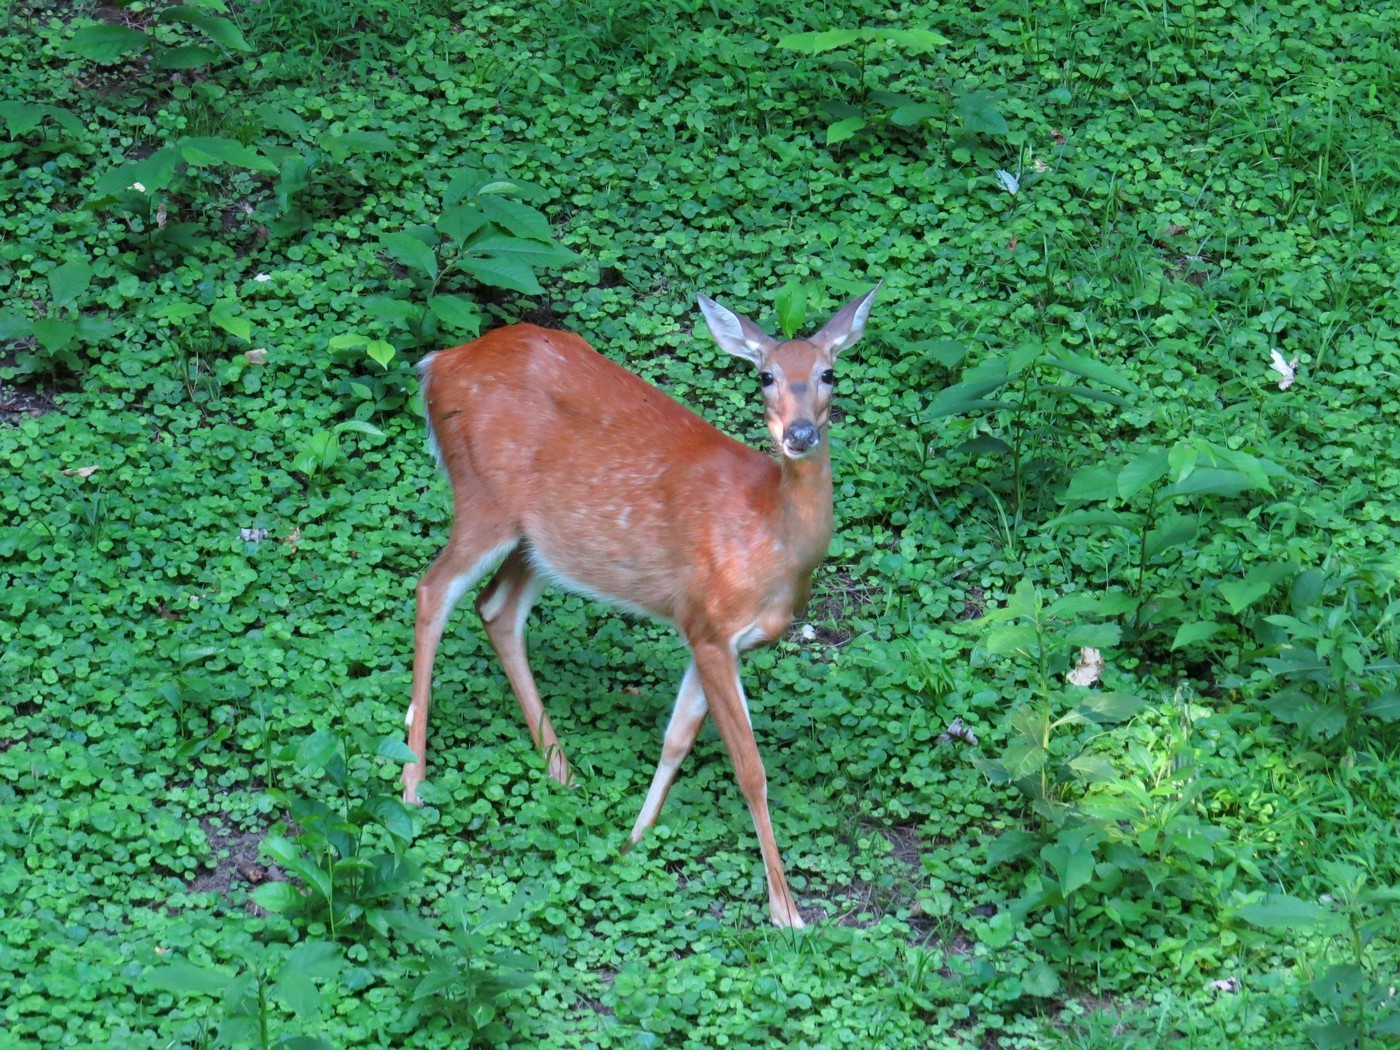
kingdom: Animalia
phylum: Chordata
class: Mammalia
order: Artiodactyla
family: Cervidae
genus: Odocoileus
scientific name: Odocoileus virginianus
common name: White-tailed deer
